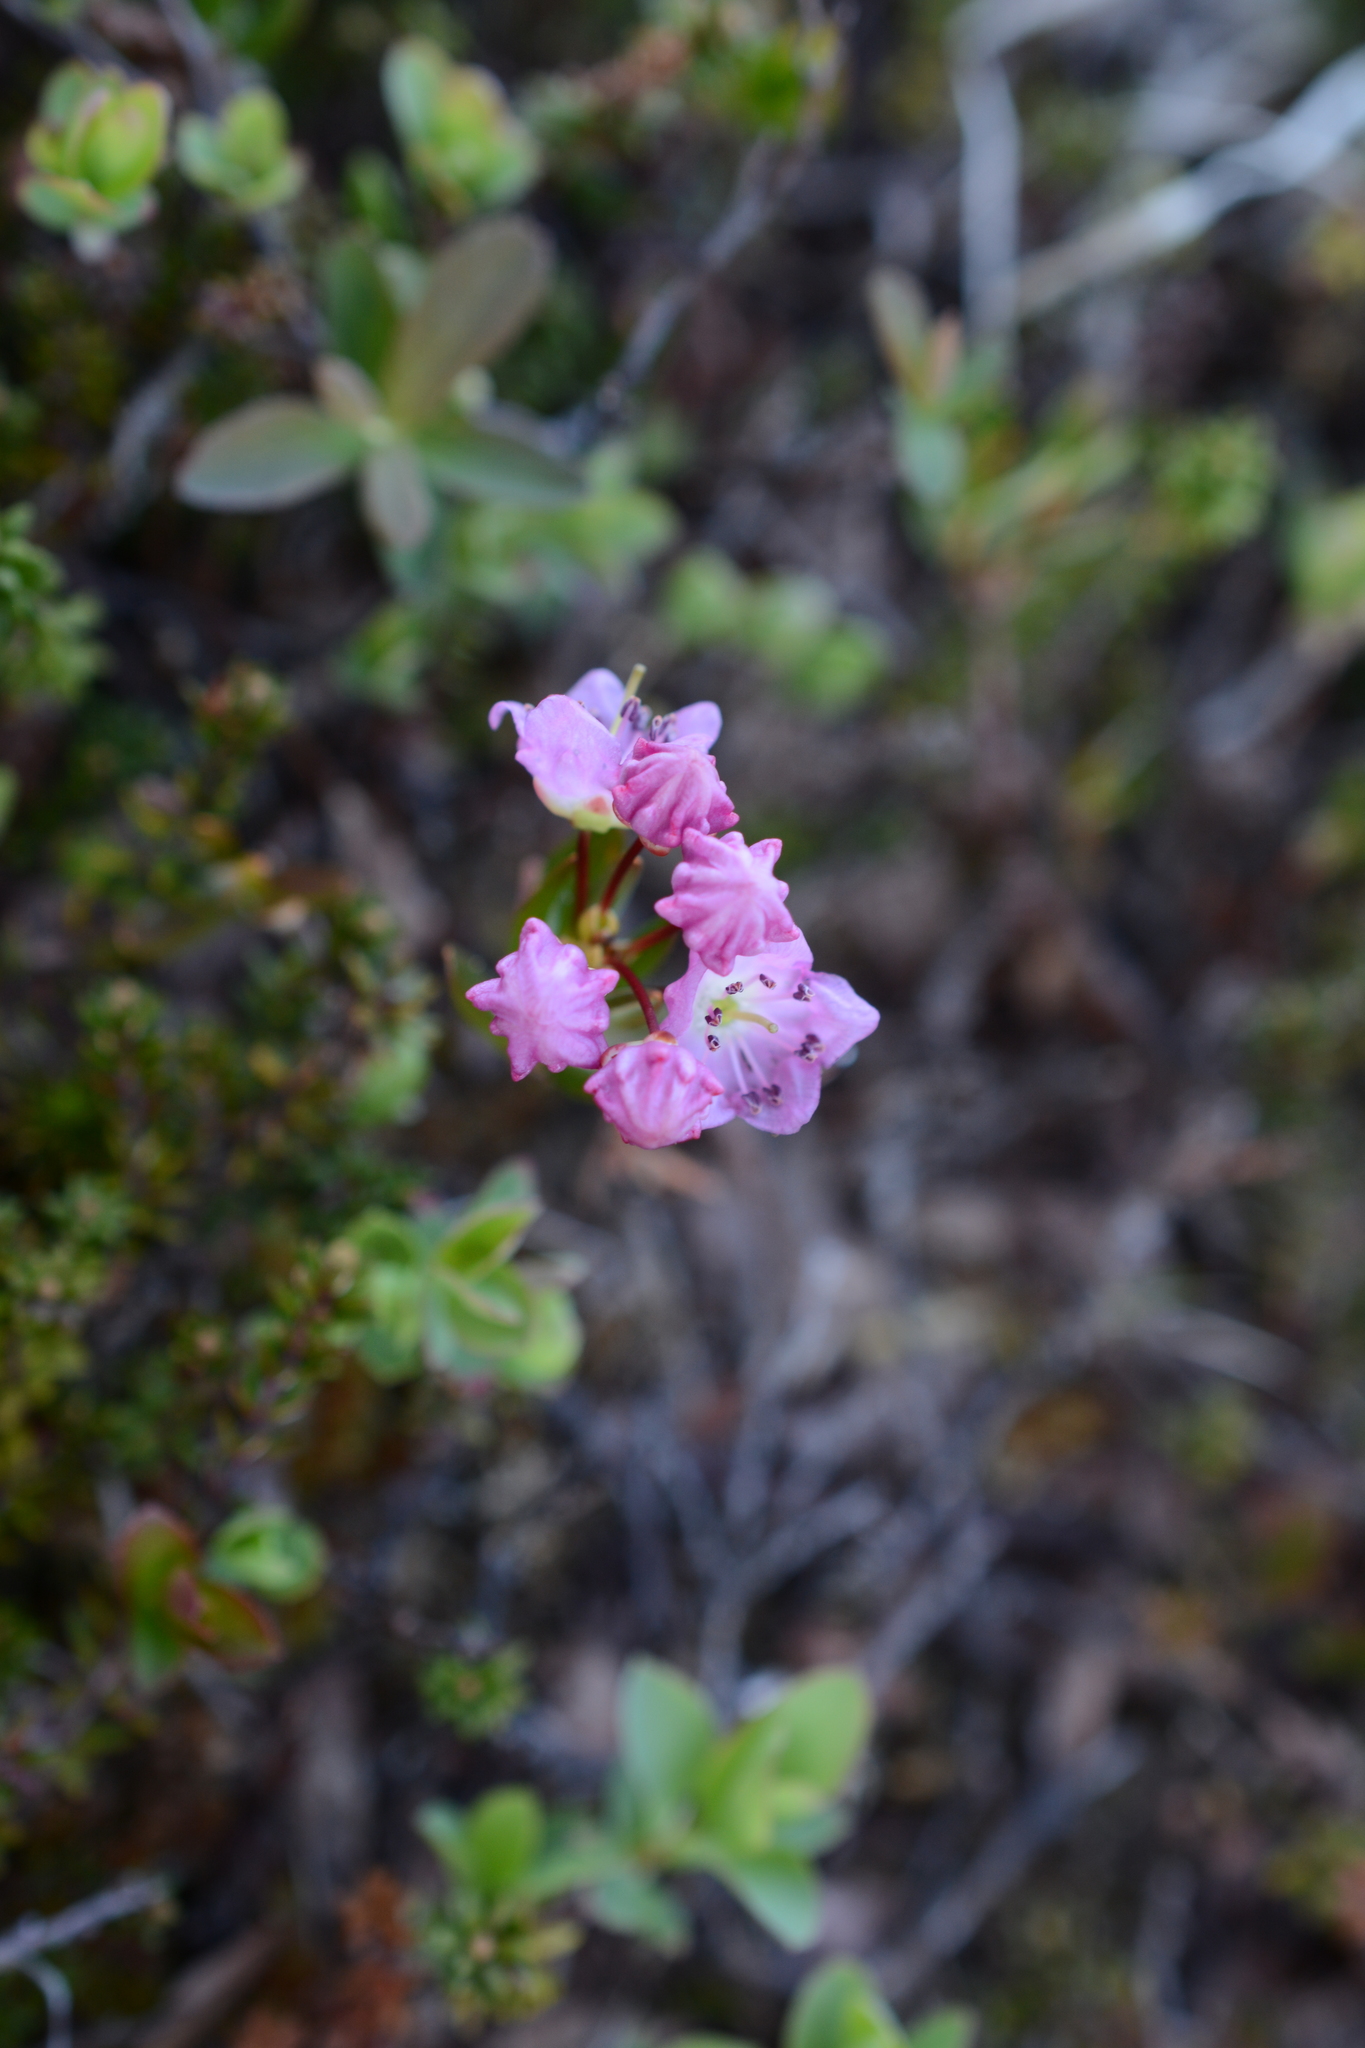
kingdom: Plantae
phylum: Tracheophyta
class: Magnoliopsida
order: Ericales
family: Ericaceae
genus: Kalmia
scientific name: Kalmia microphylla
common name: Alpine bog laurel
